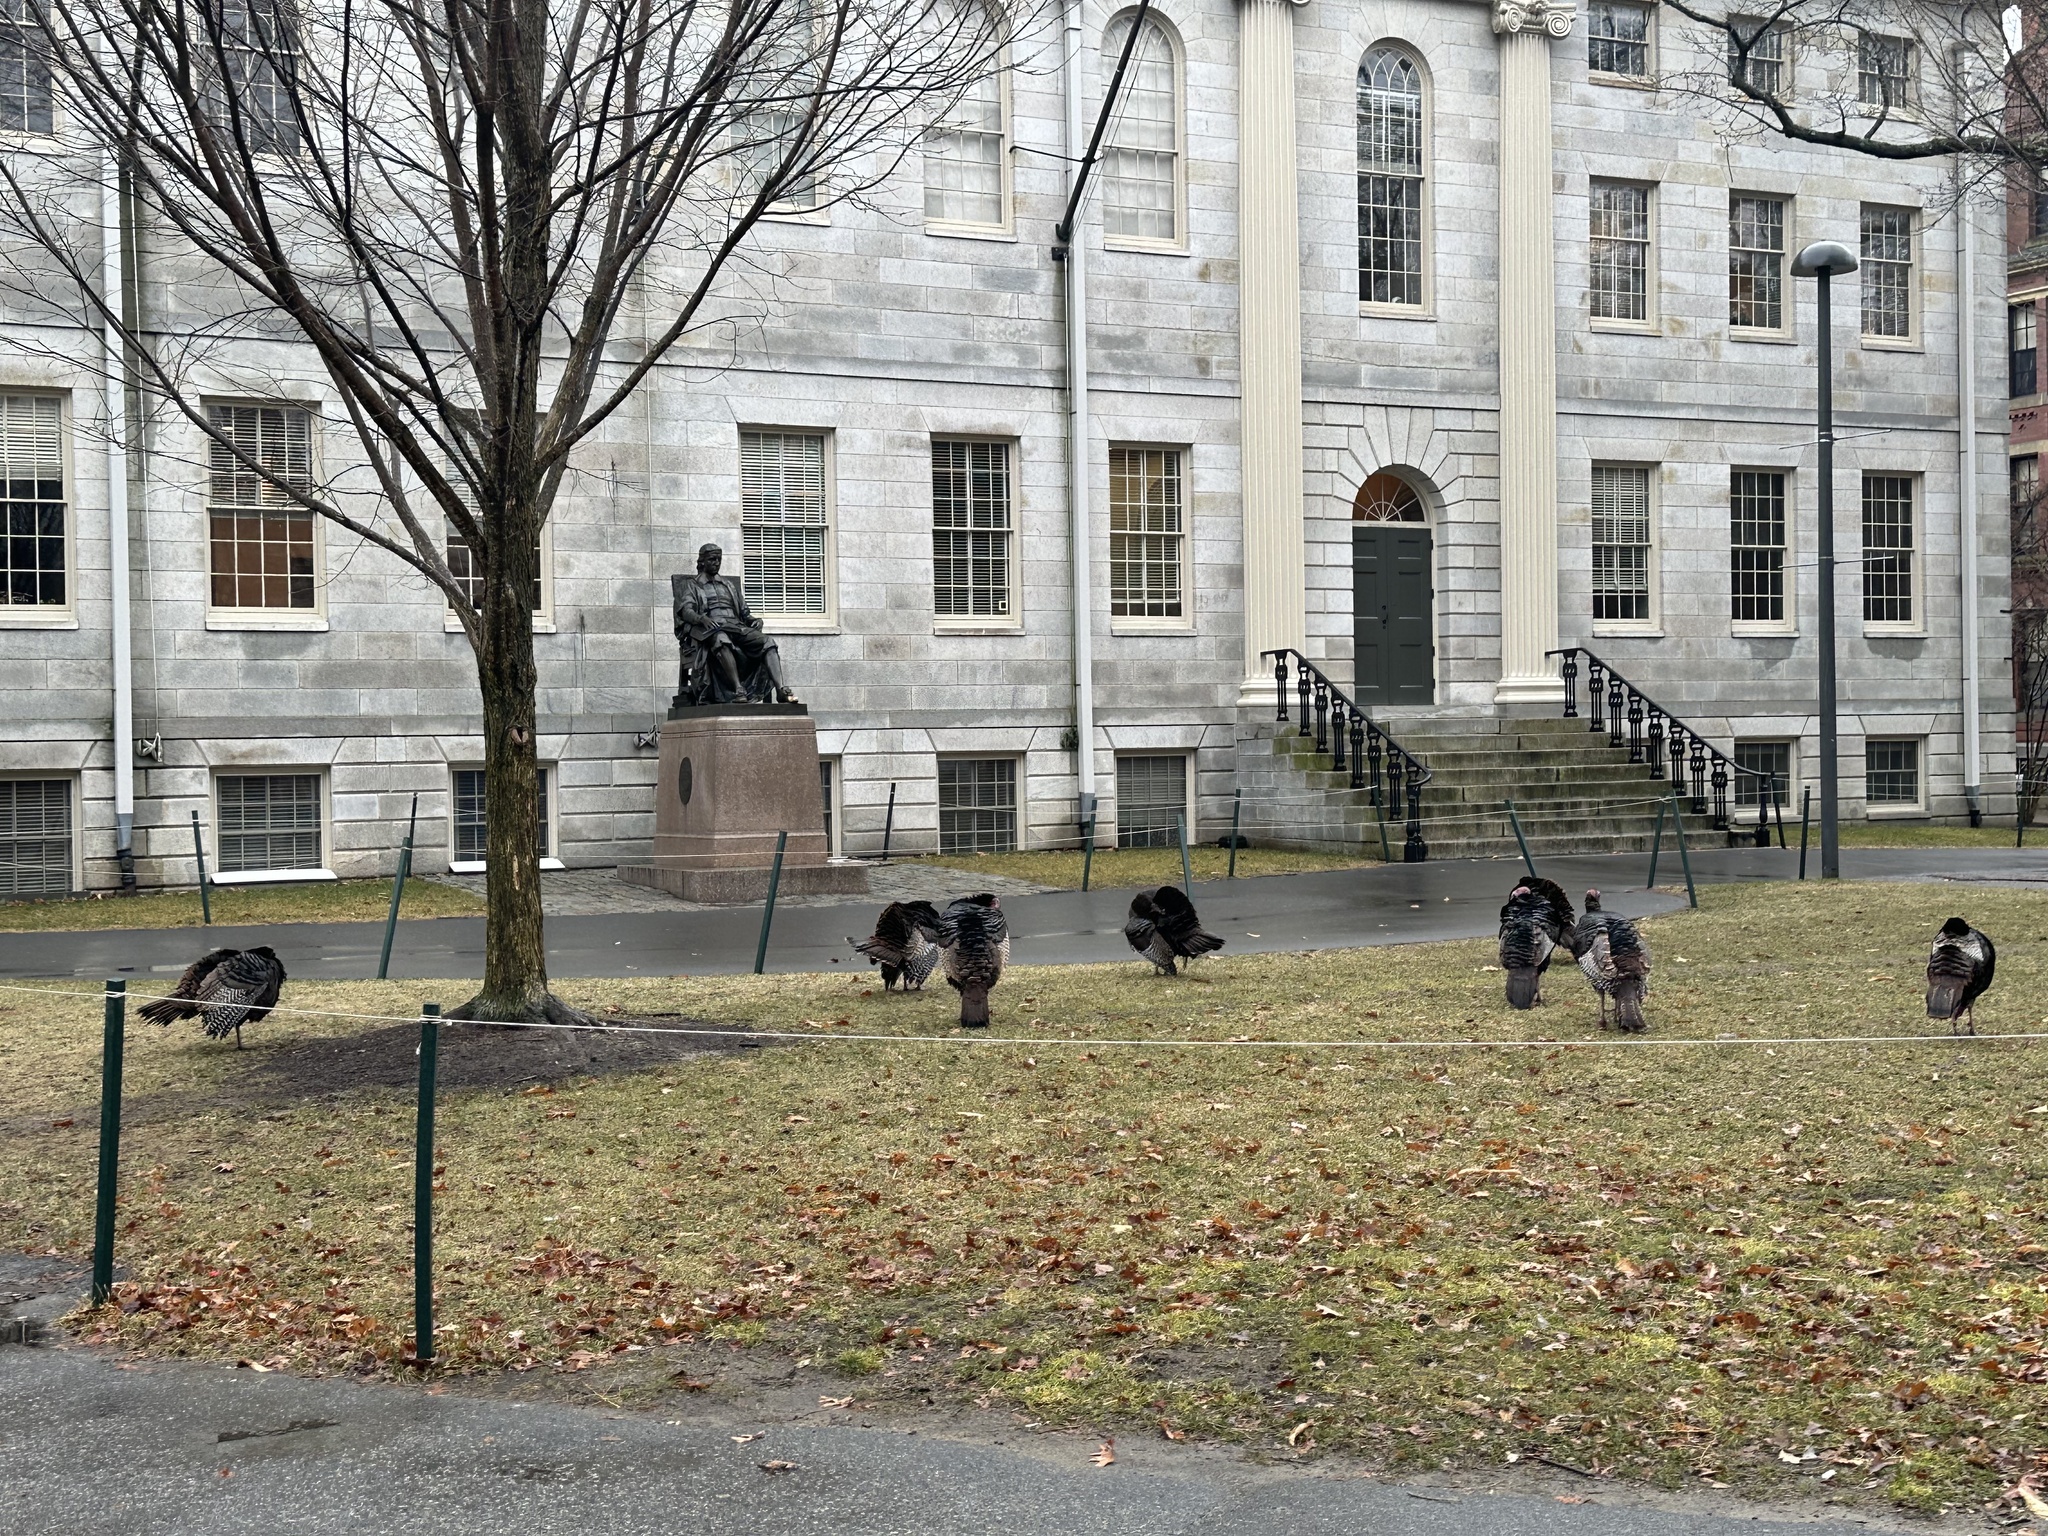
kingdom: Animalia
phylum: Chordata
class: Aves
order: Galliformes
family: Phasianidae
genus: Meleagris
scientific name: Meleagris gallopavo
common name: Wild turkey
